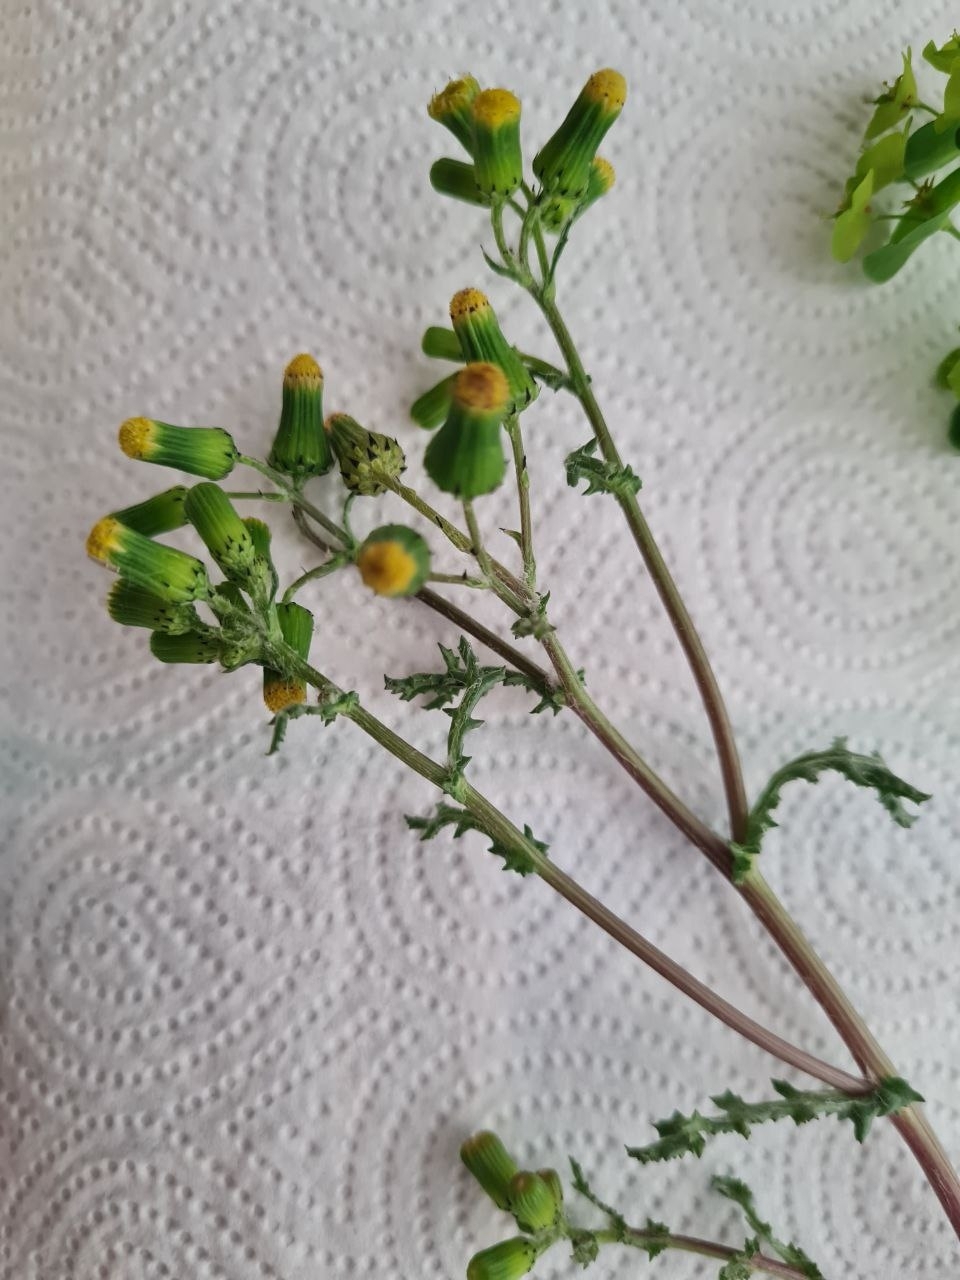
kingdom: Plantae
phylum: Tracheophyta
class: Magnoliopsida
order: Asterales
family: Asteraceae
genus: Senecio
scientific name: Senecio vulgaris
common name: Old-man-in-the-spring
